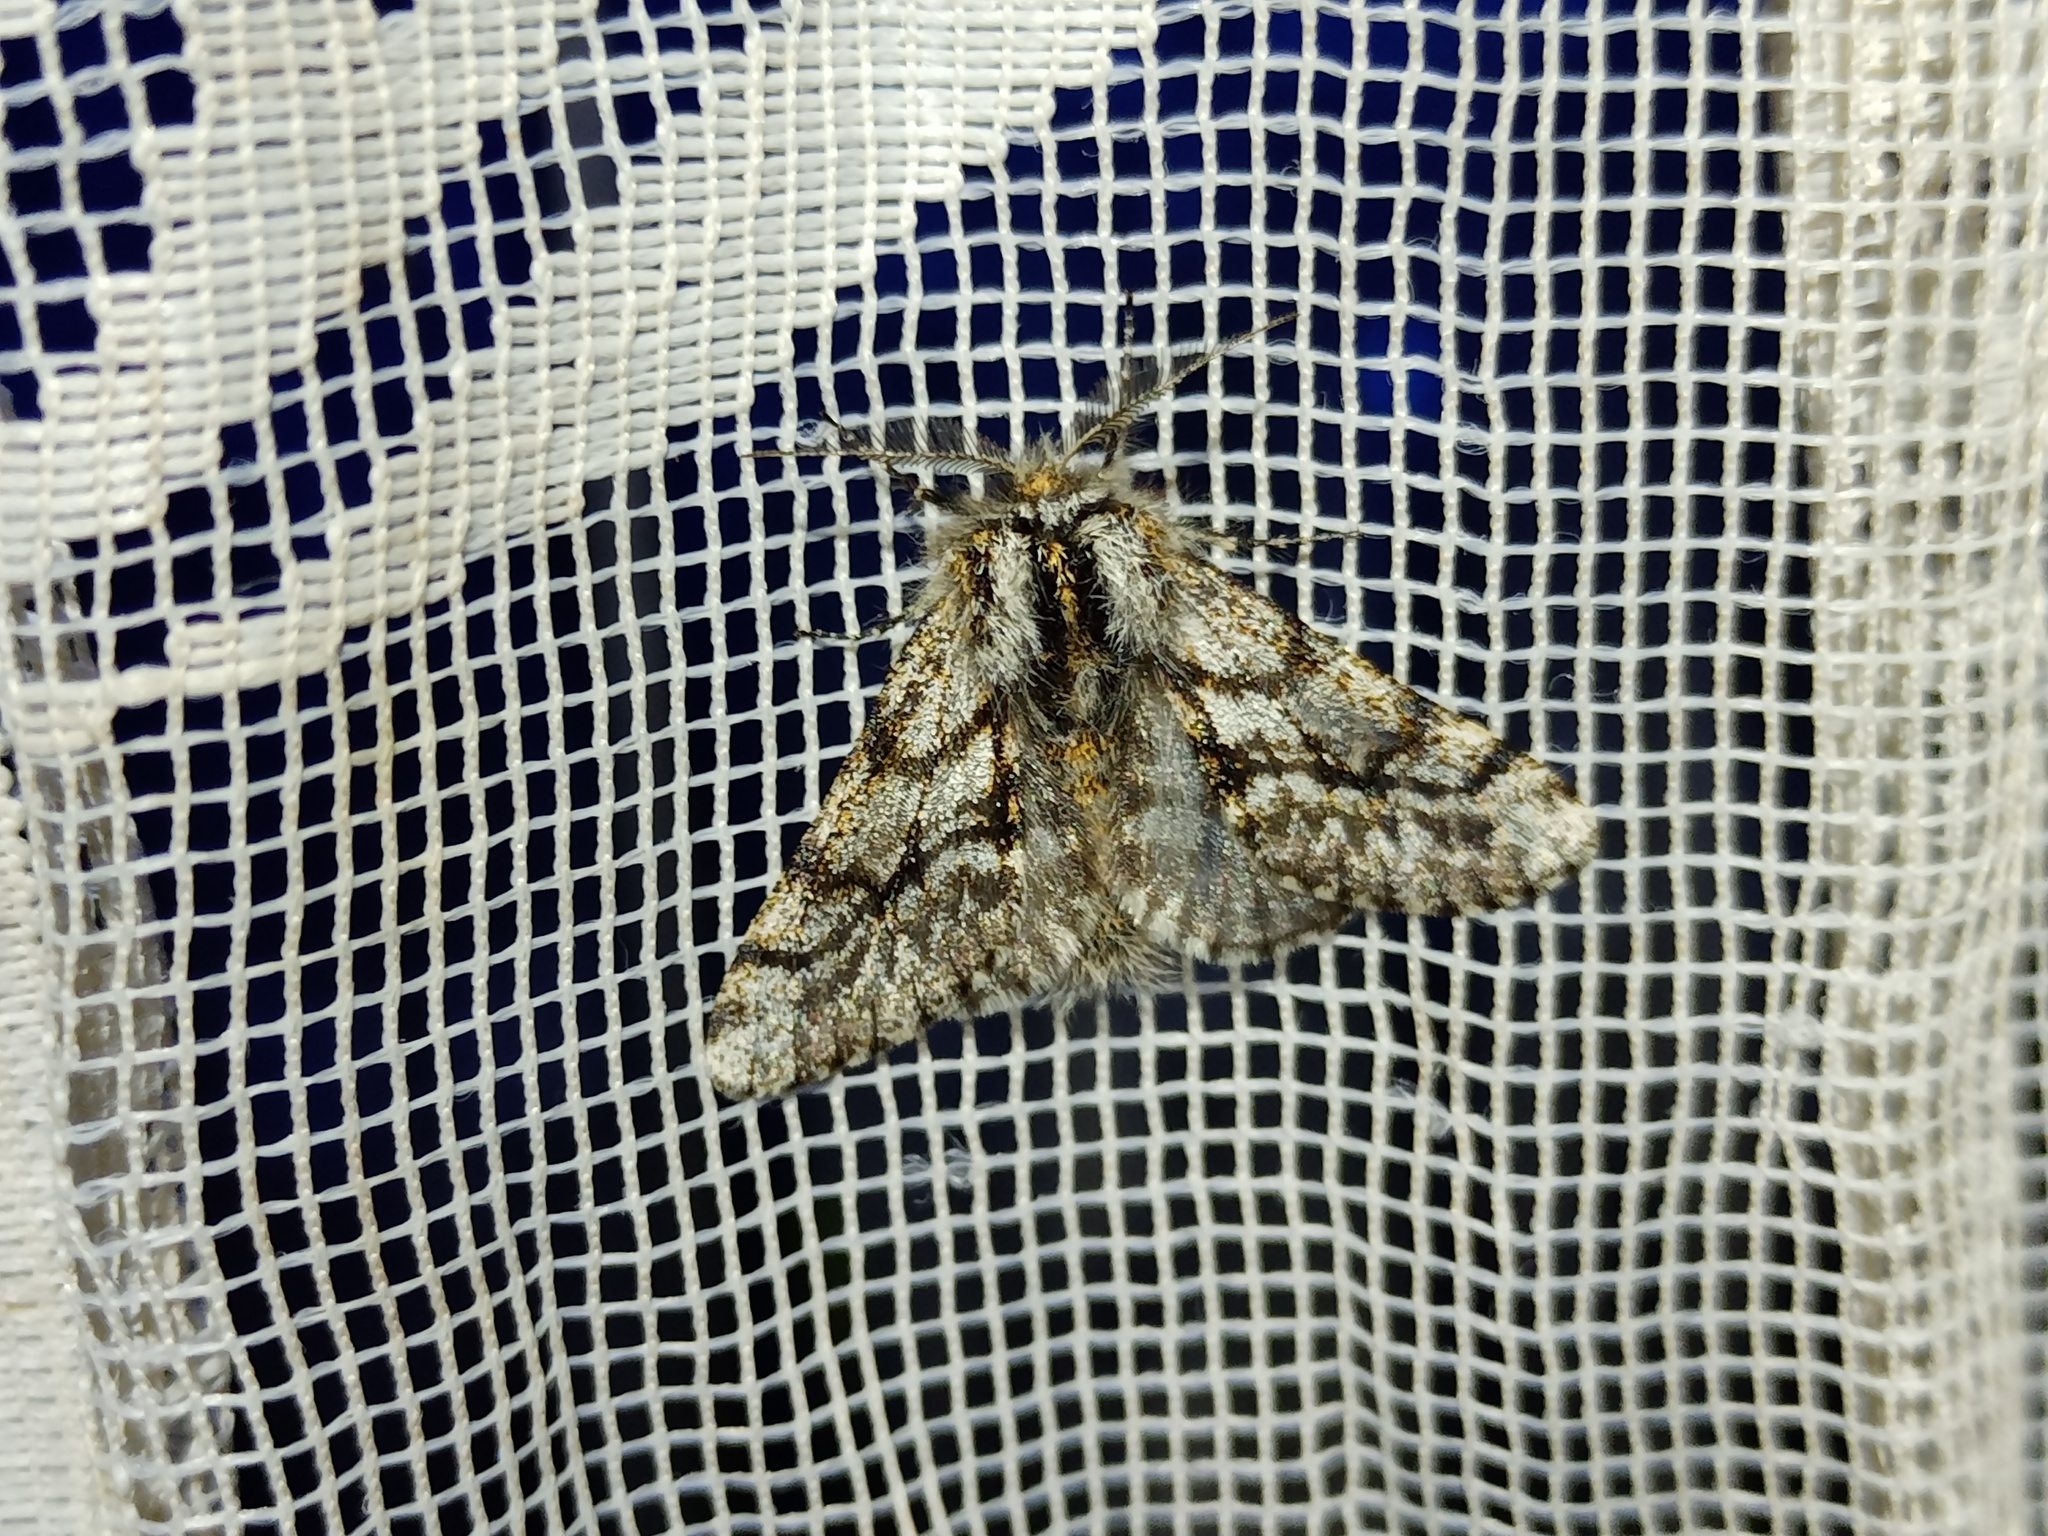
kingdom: Animalia
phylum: Arthropoda
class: Insecta
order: Lepidoptera
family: Geometridae
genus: Lycia
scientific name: Lycia pomonaria
